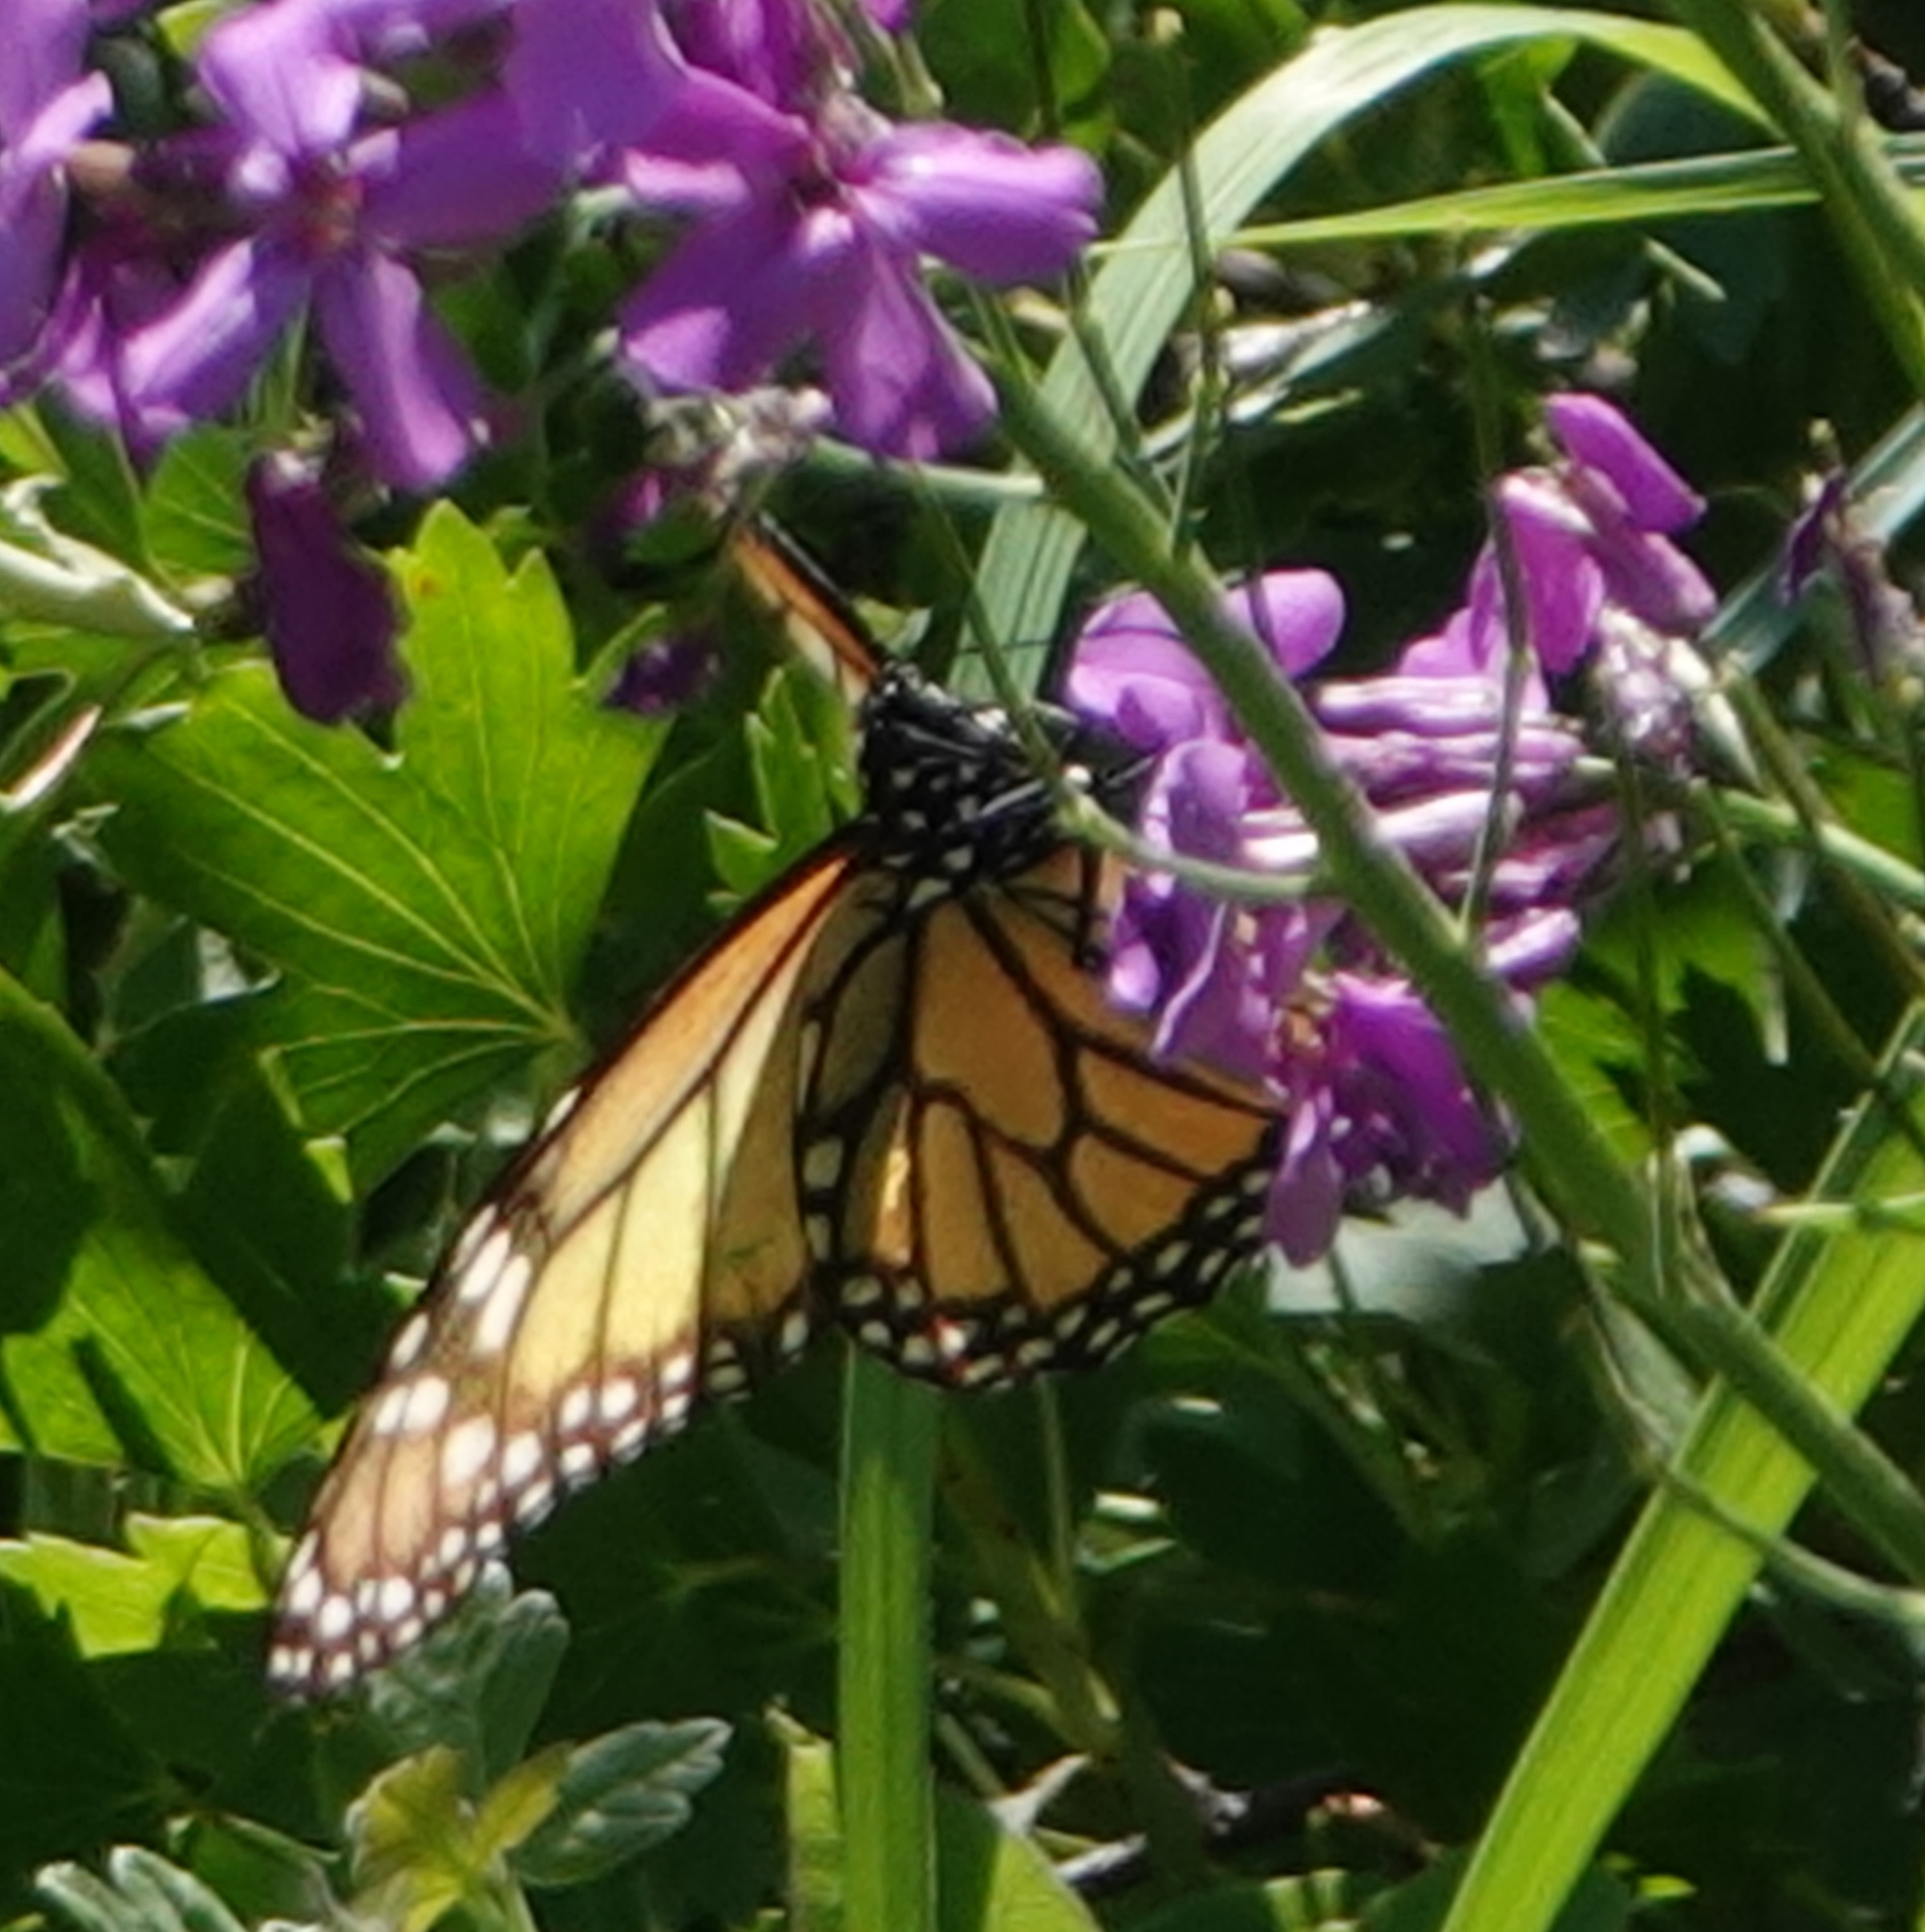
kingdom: Animalia
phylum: Arthropoda
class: Insecta
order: Lepidoptera
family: Nymphalidae
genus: Danaus
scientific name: Danaus plexippus
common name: Monarch
